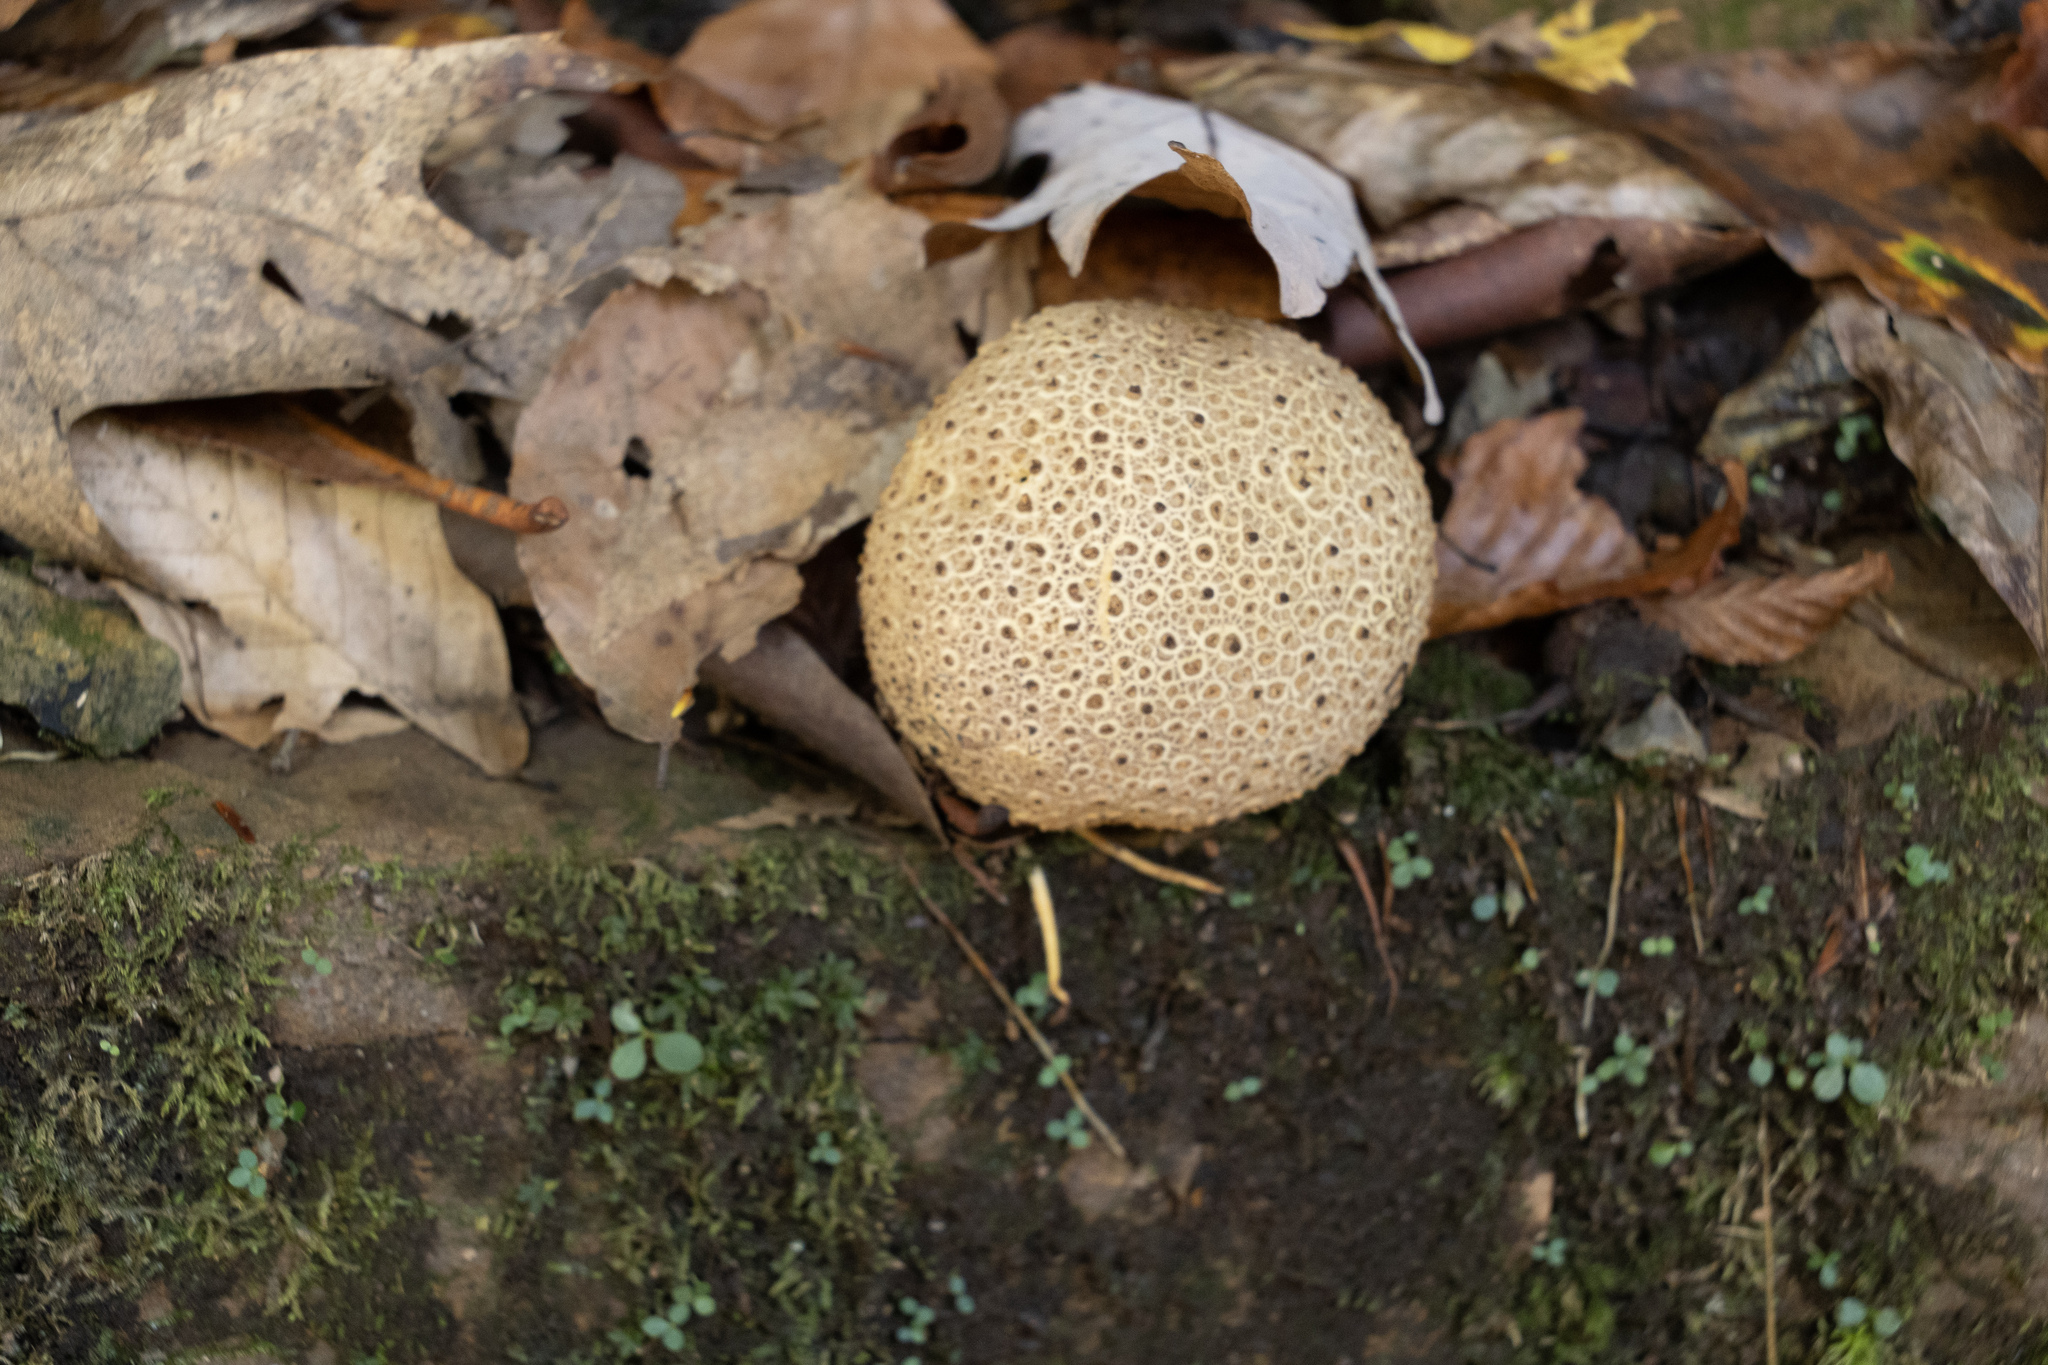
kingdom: Fungi
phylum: Basidiomycota
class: Agaricomycetes
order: Boletales
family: Sclerodermataceae
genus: Scleroderma
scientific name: Scleroderma citrinum
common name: Common earthball
